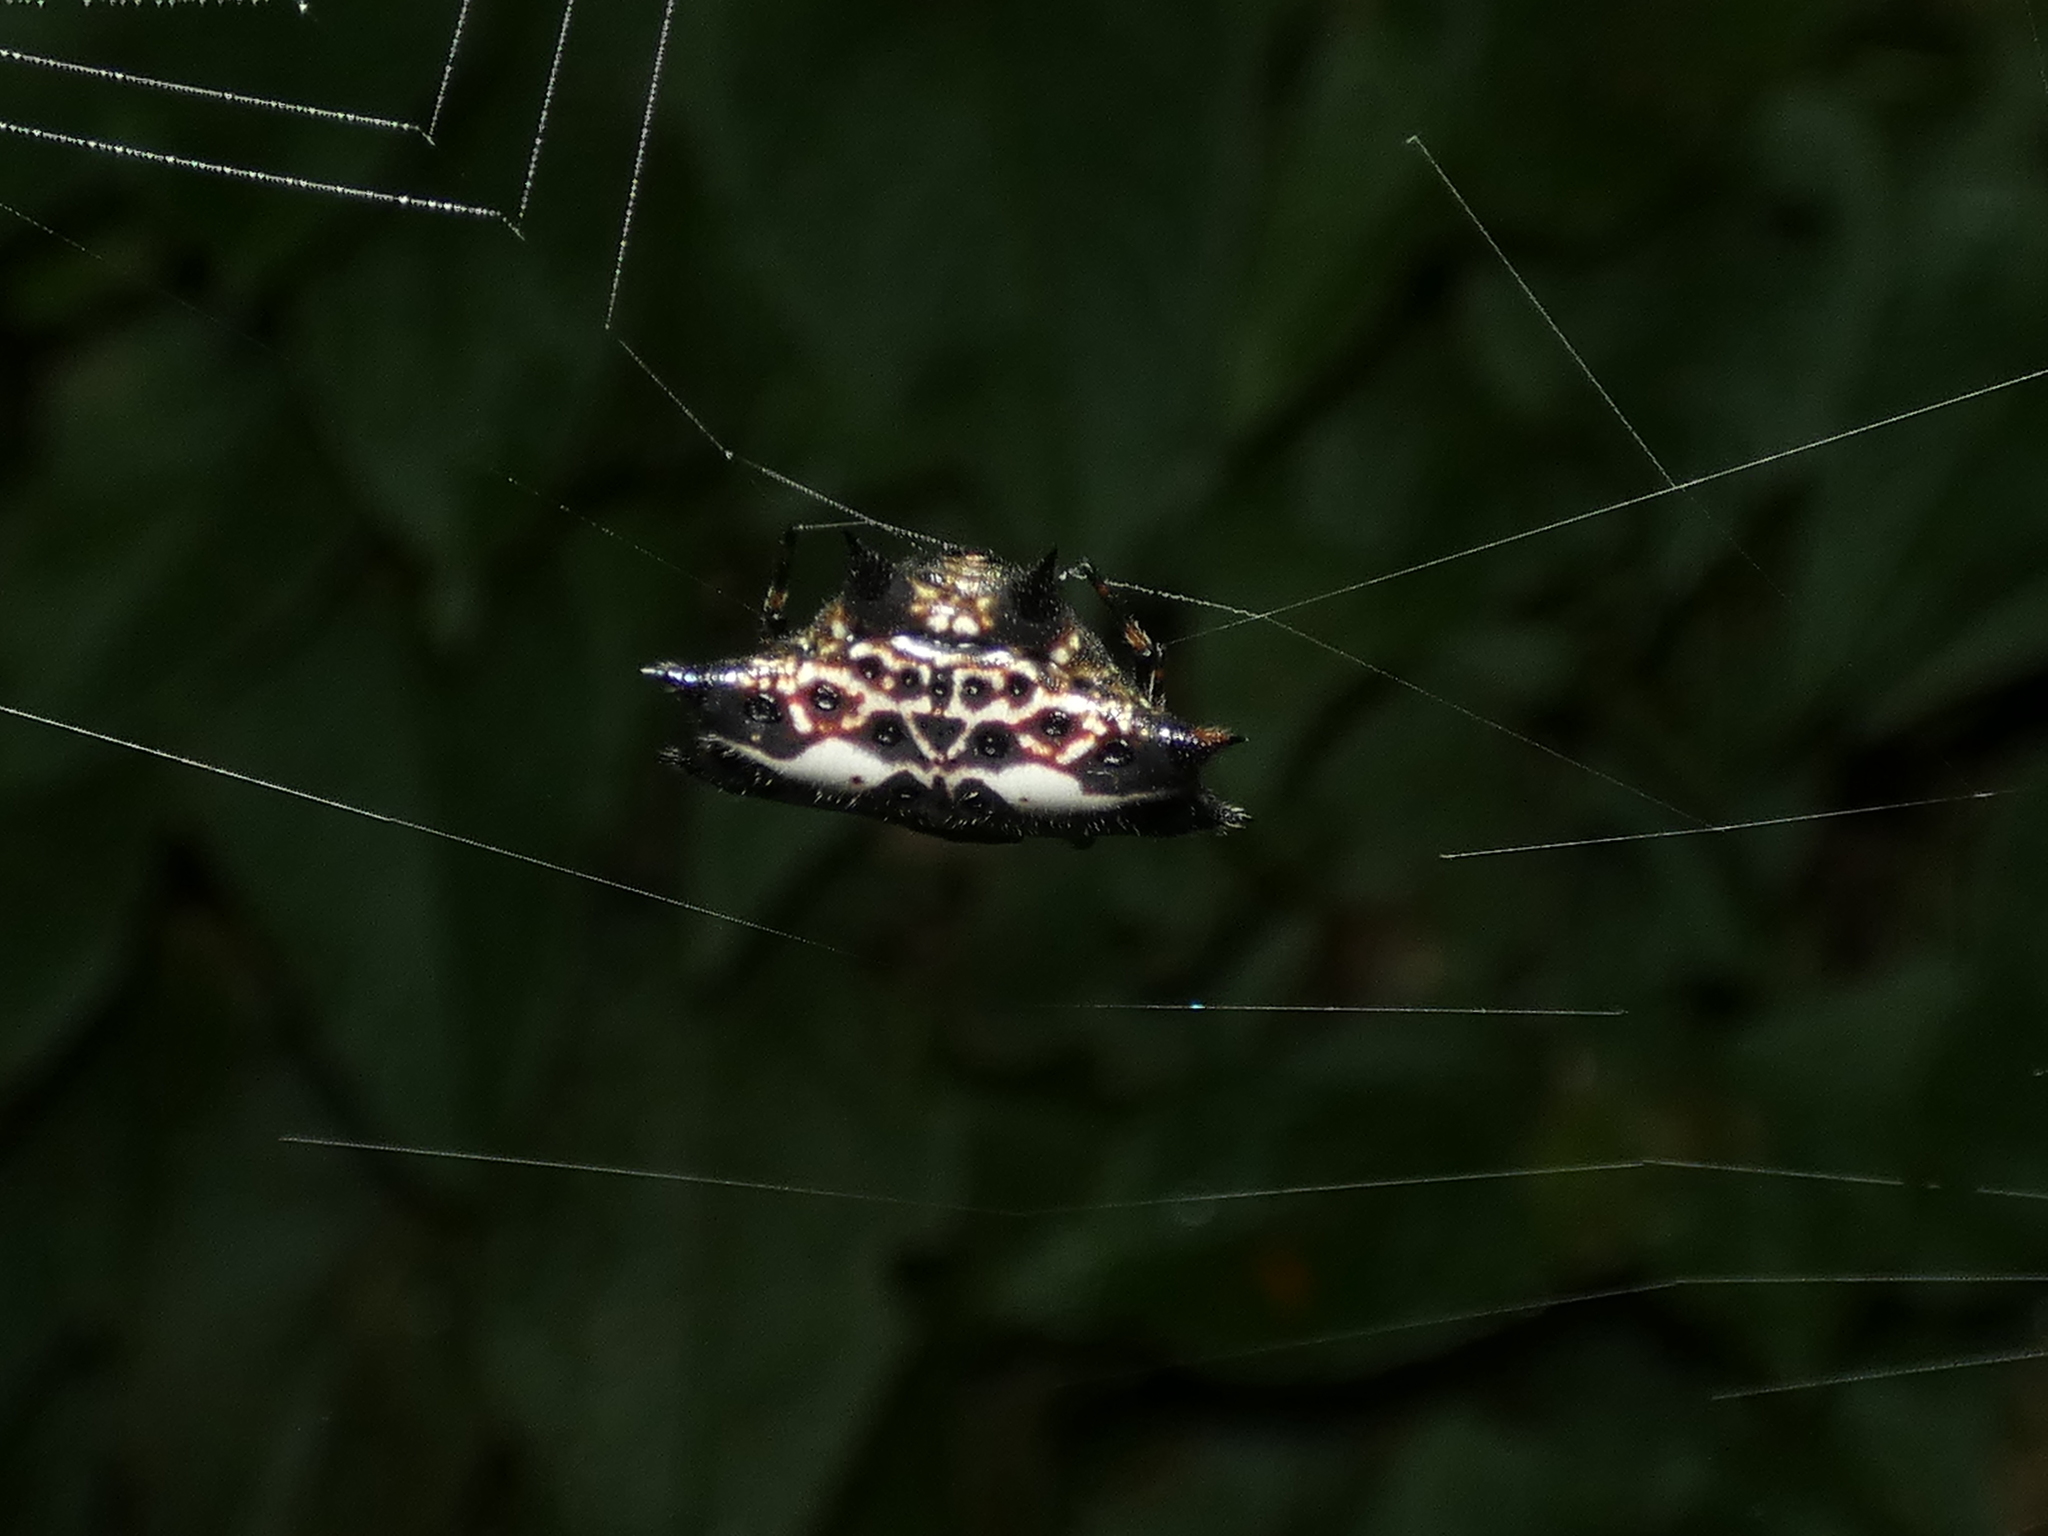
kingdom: Animalia
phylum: Arthropoda
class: Arachnida
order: Araneae
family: Araneidae
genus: Gasteracantha
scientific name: Gasteracantha cancriformis
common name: Orb weavers
